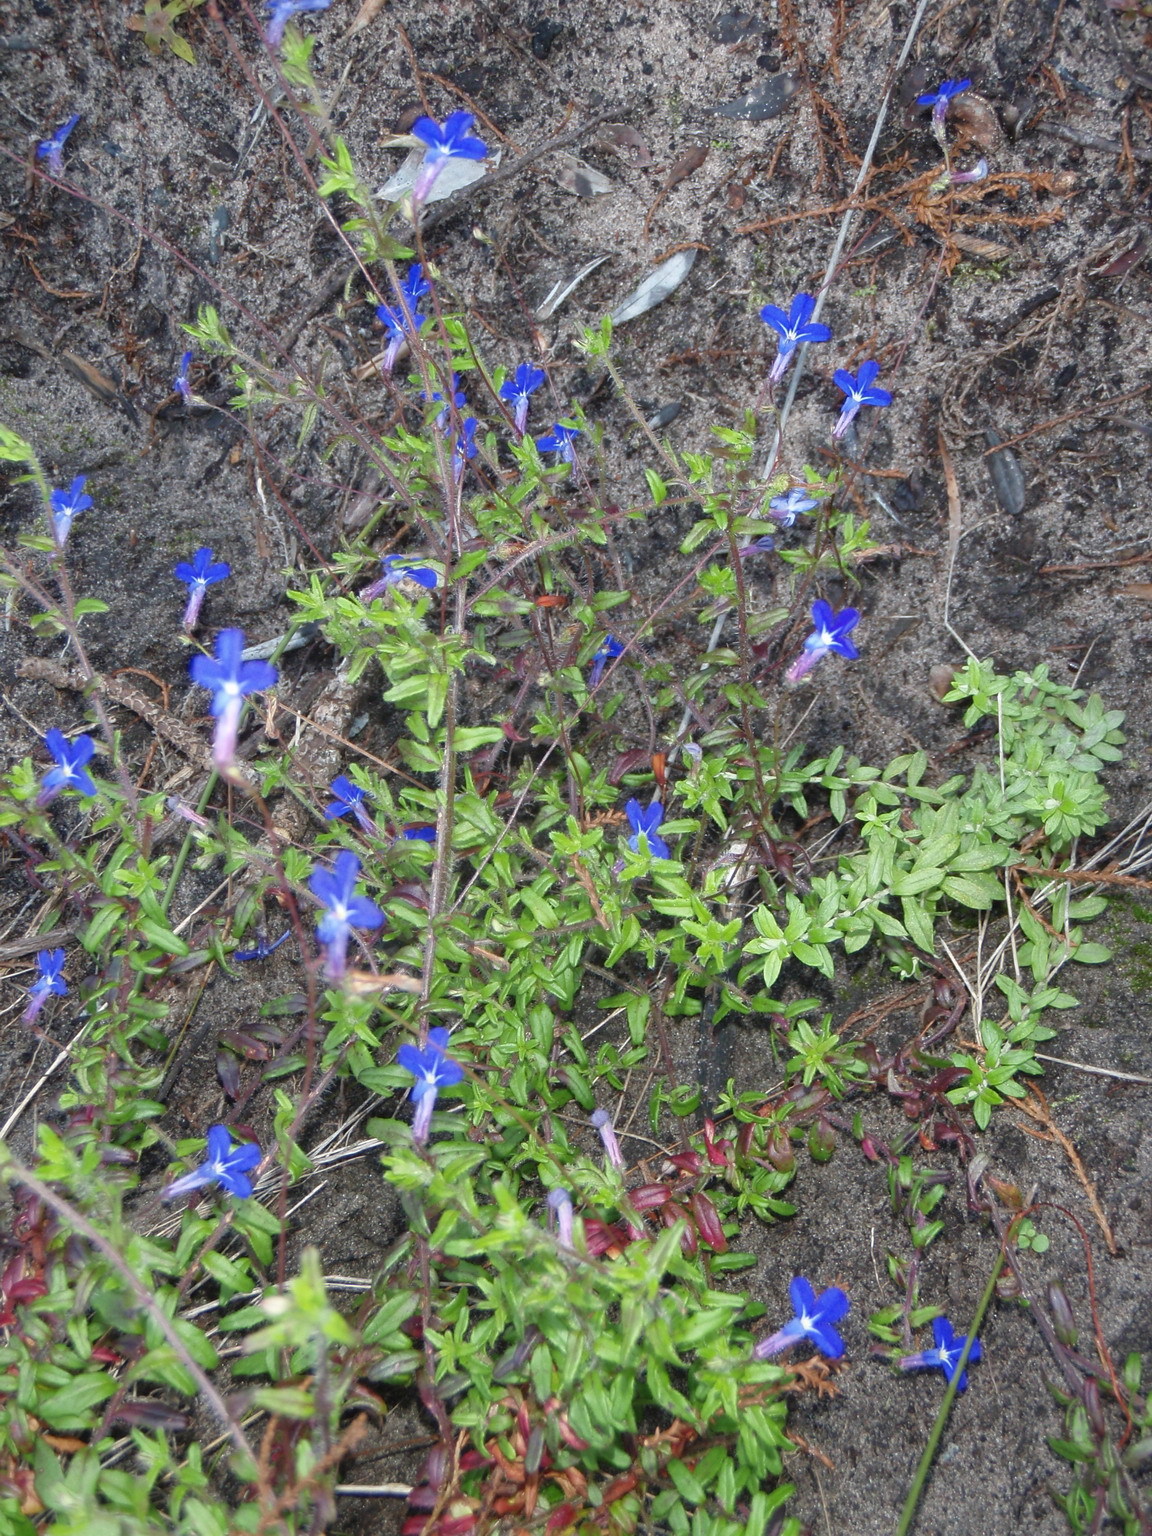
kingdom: Plantae
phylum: Tracheophyta
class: Magnoliopsida
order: Asterales
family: Campanulaceae
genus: Lobelia
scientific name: Lobelia neglecta
